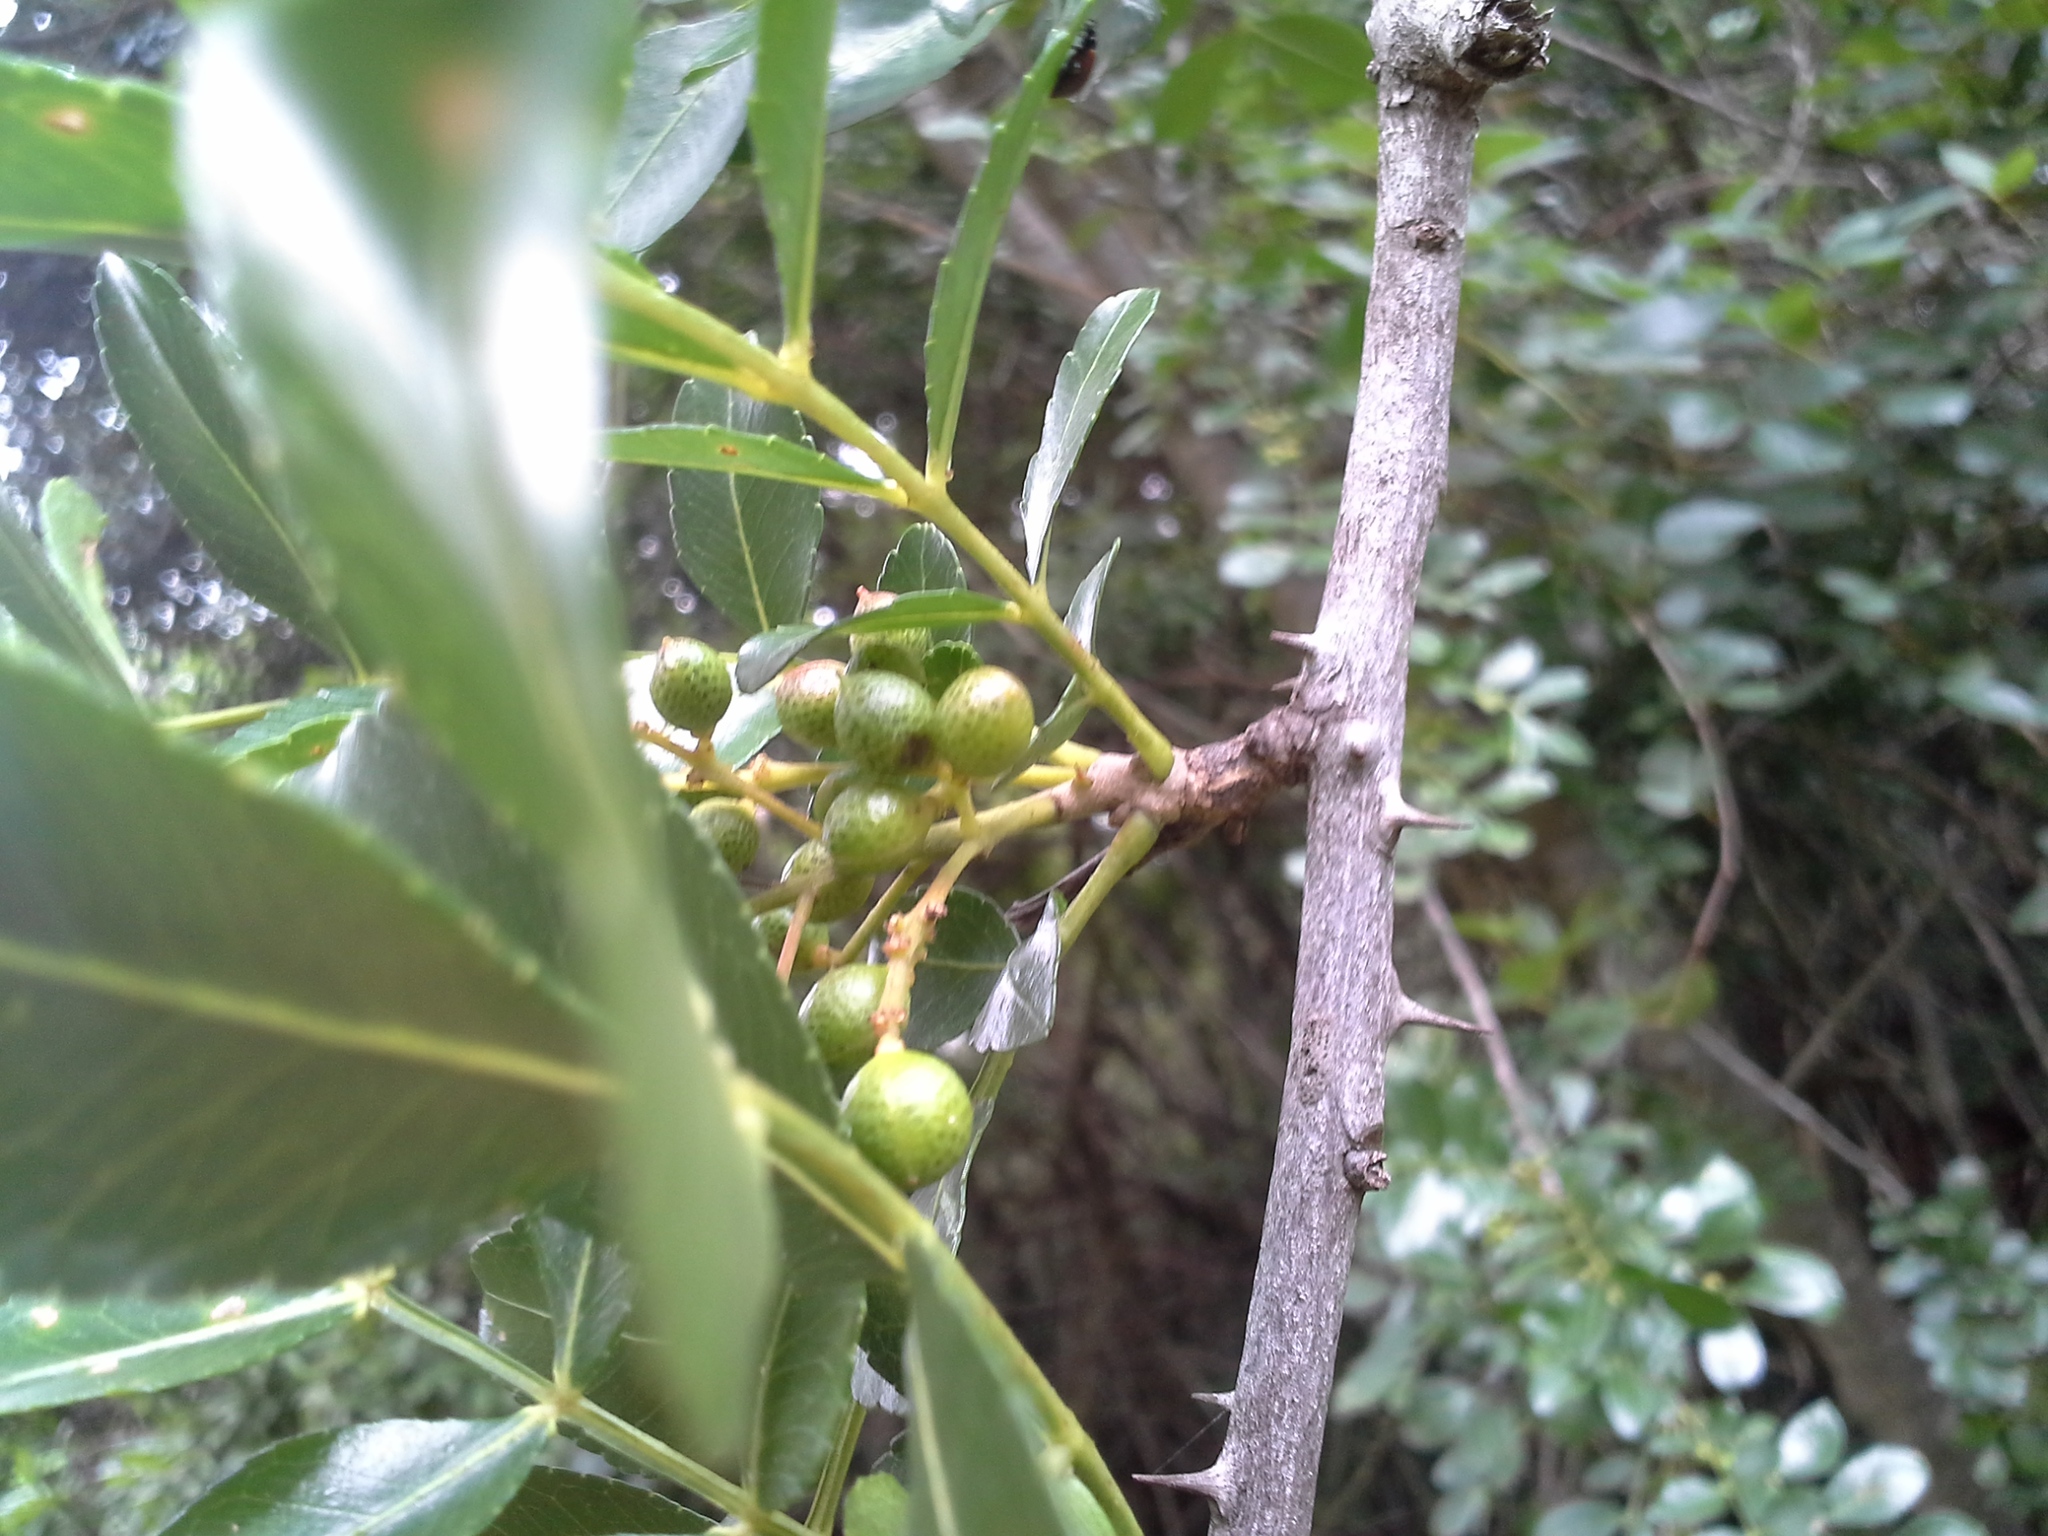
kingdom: Plantae
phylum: Tracheophyta
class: Magnoliopsida
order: Sapindales
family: Rutaceae
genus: Zanthoxylum
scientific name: Zanthoxylum capense
